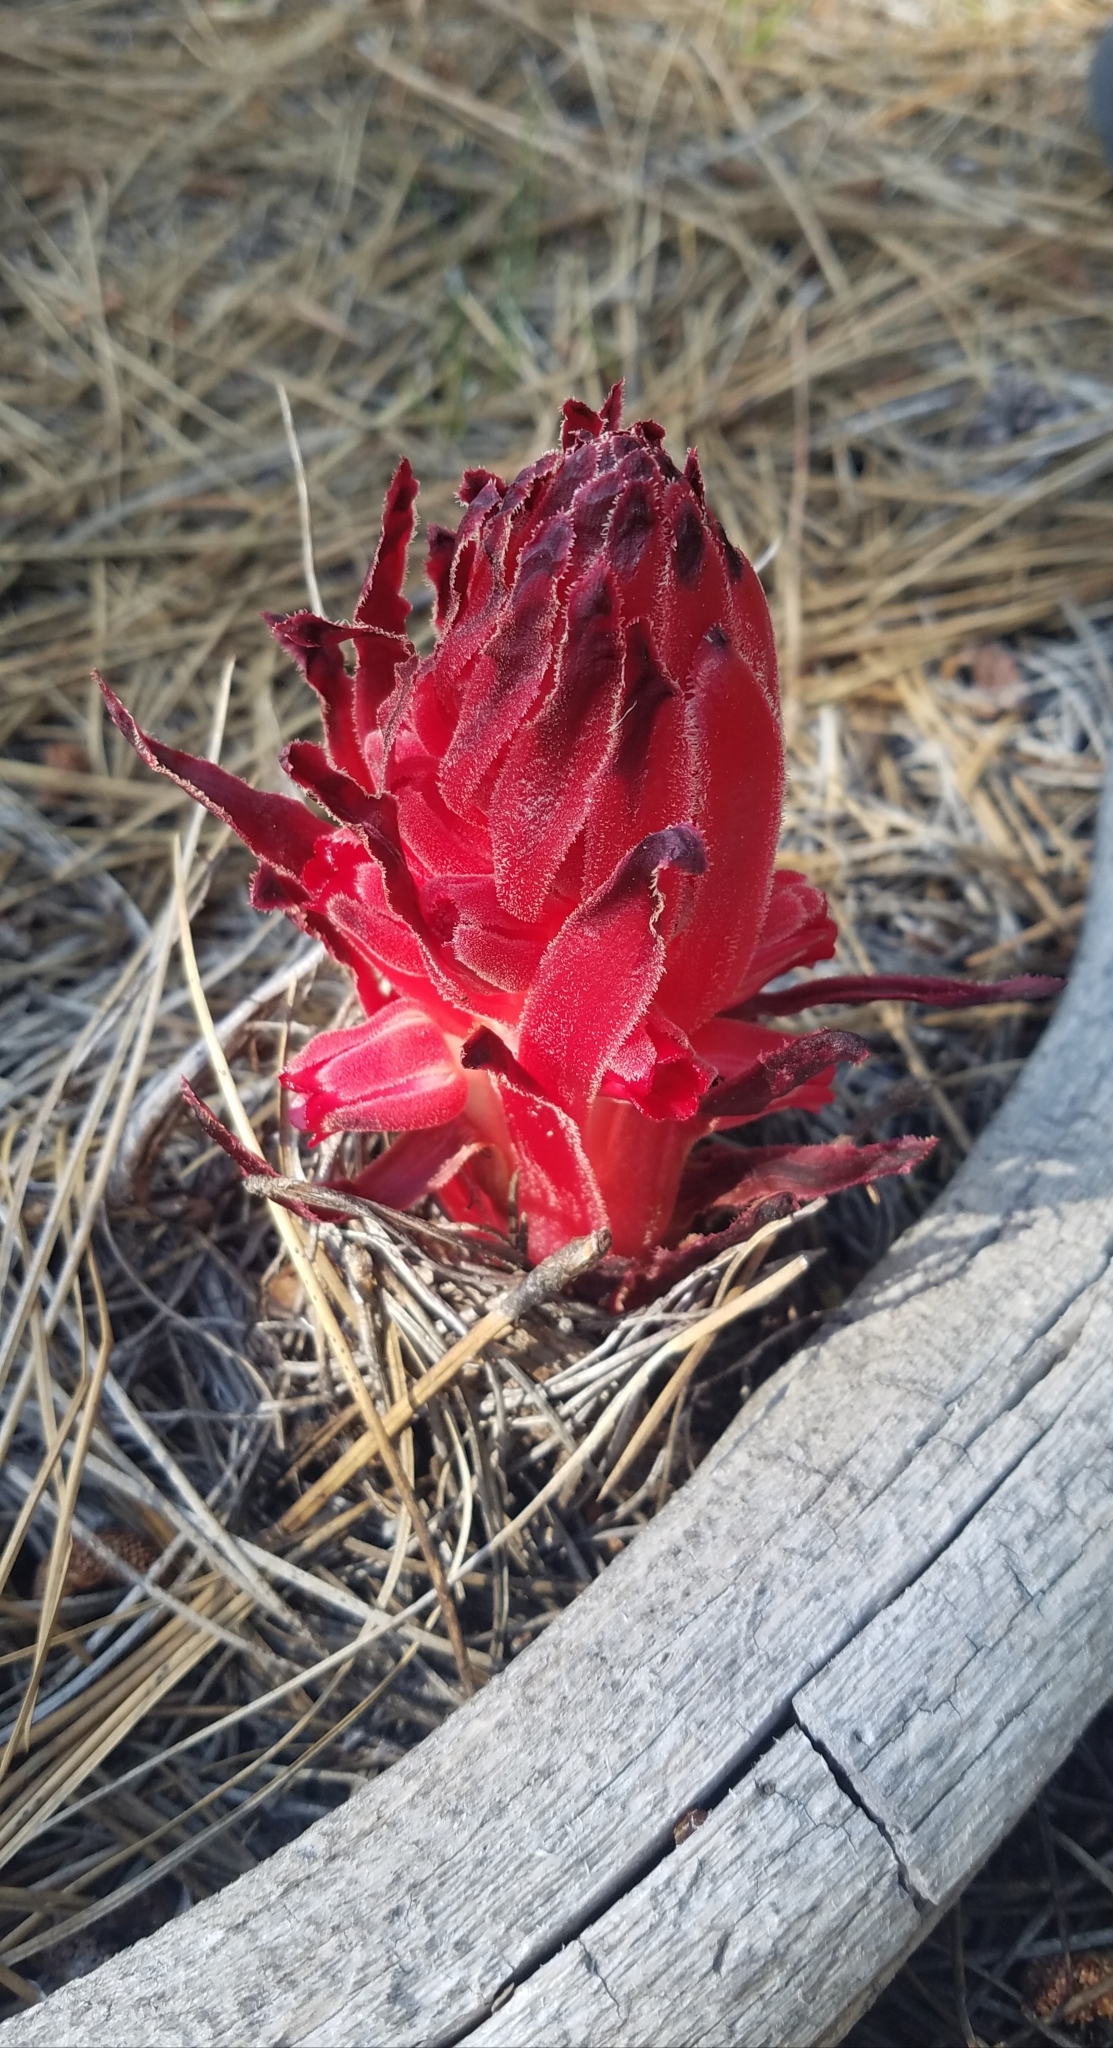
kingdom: Plantae
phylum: Tracheophyta
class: Magnoliopsida
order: Ericales
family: Ericaceae
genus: Sarcodes
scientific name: Sarcodes sanguinea
